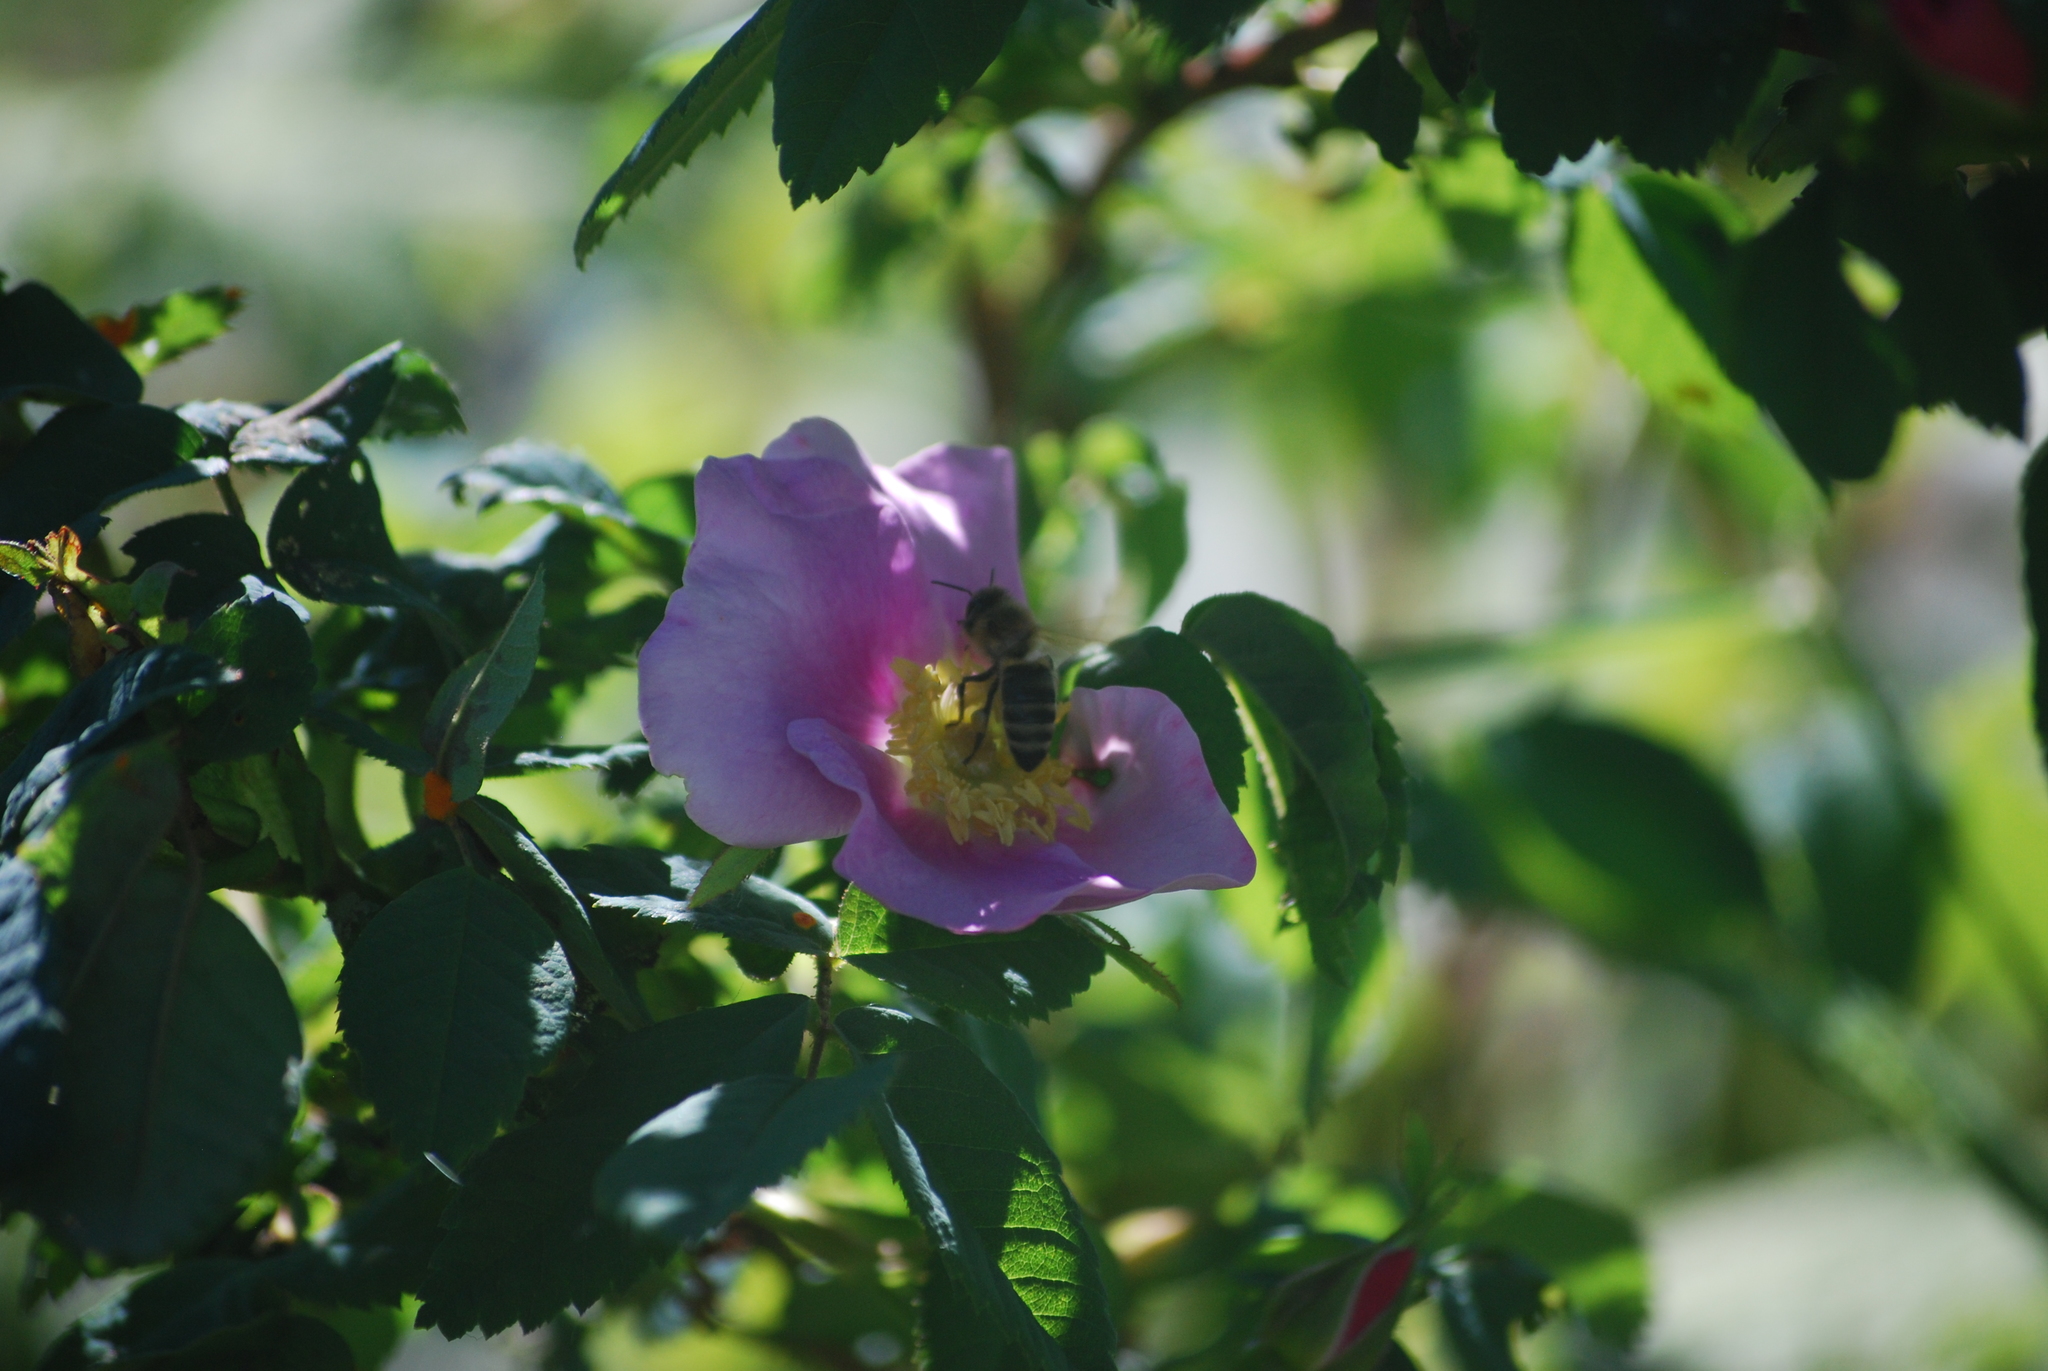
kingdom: Animalia
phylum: Arthropoda
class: Insecta
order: Hymenoptera
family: Apidae
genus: Apis
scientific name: Apis mellifera
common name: Honey bee
